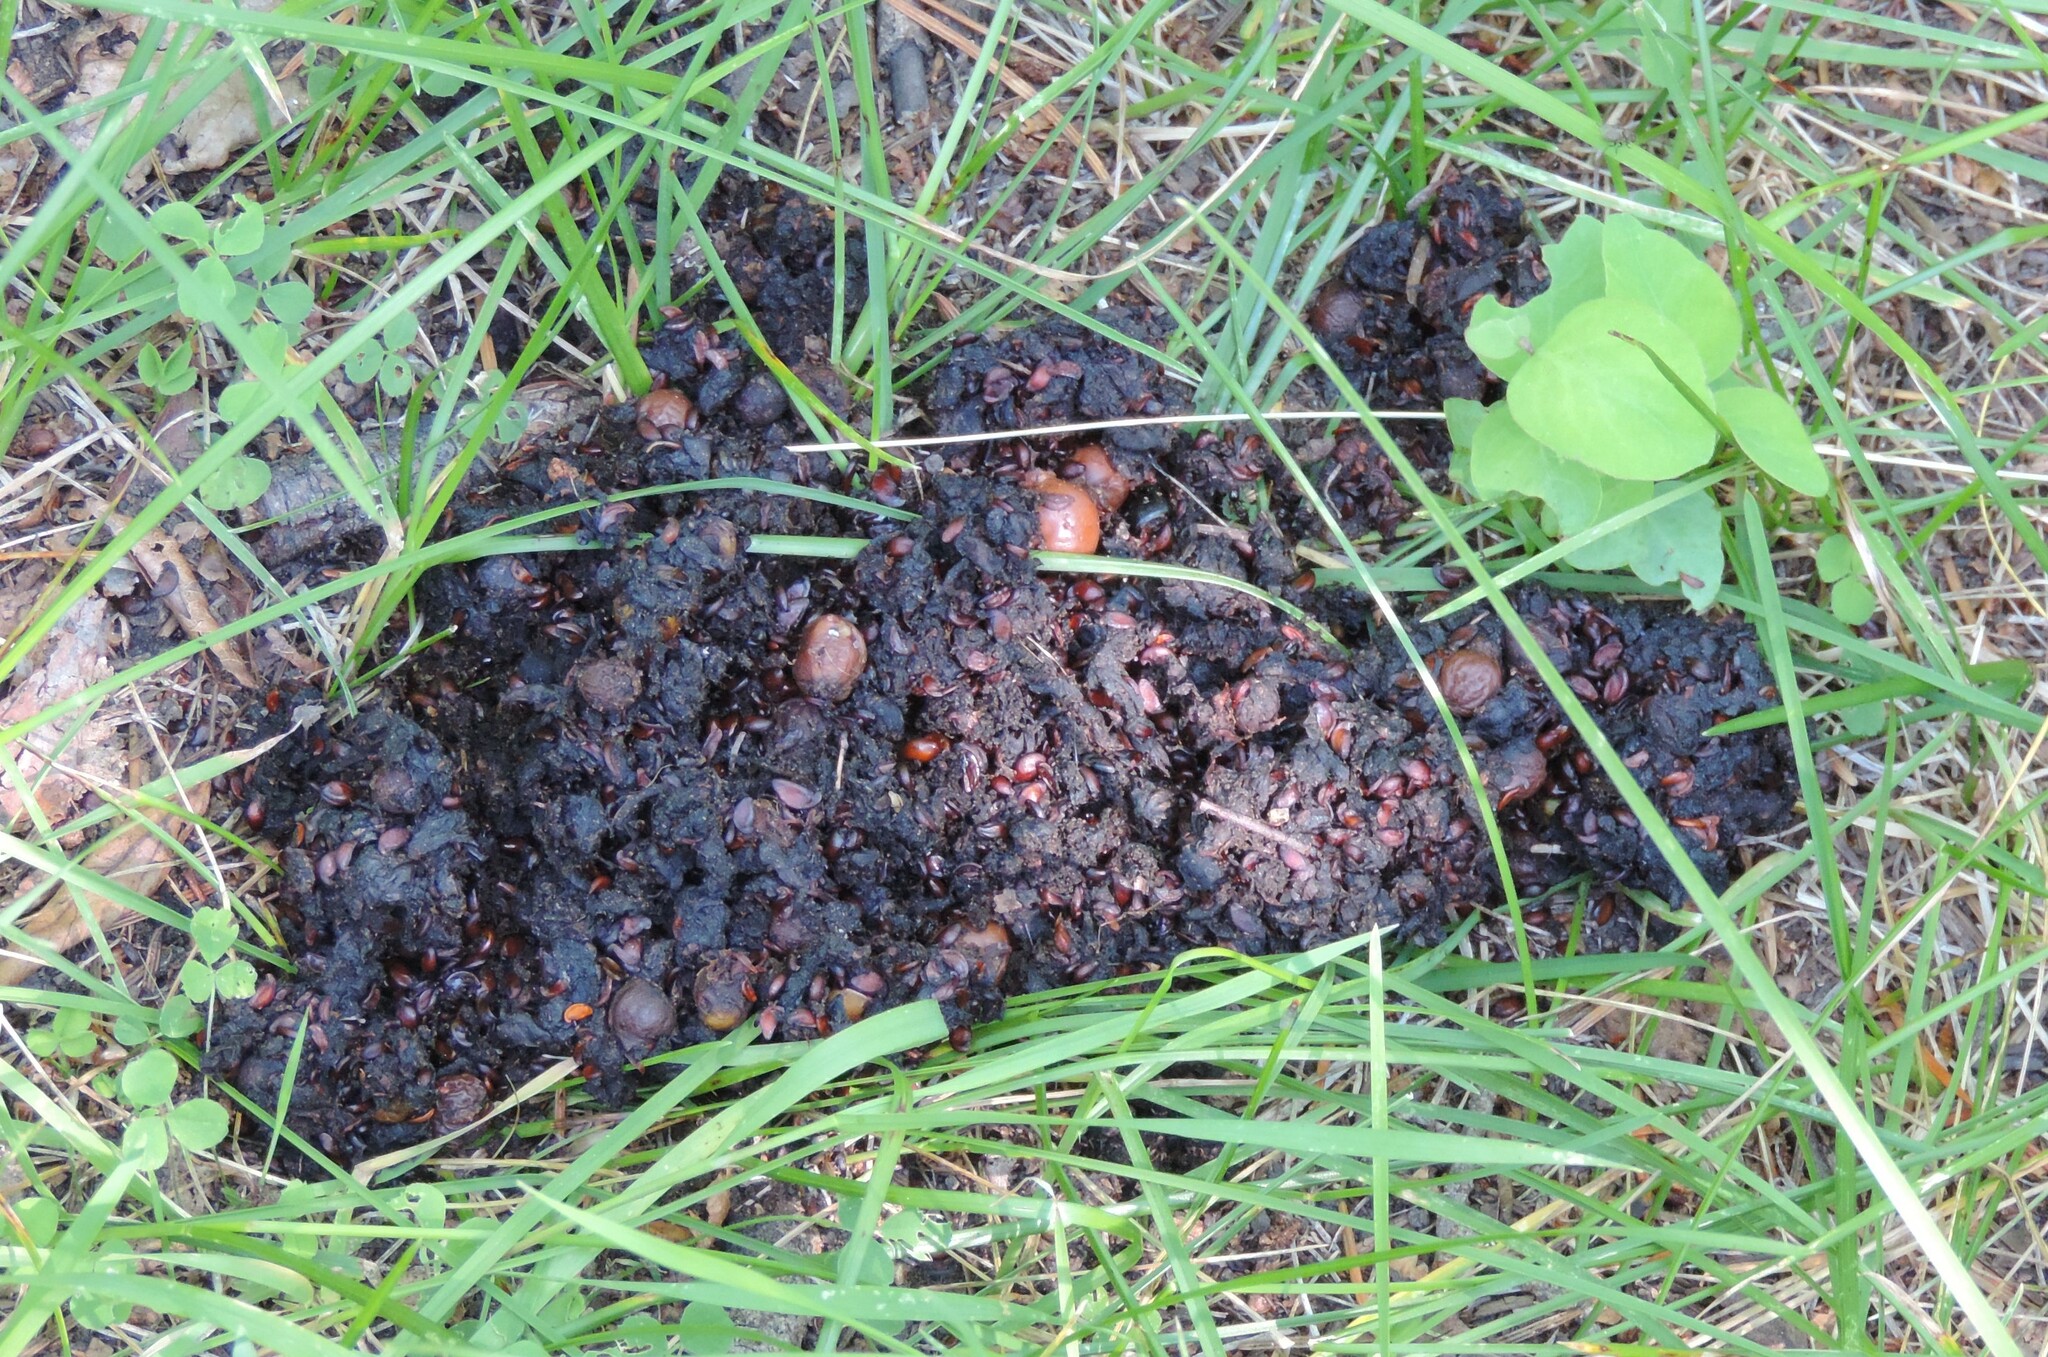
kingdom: Animalia
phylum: Chordata
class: Mammalia
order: Carnivora
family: Ursidae
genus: Ursus
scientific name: Ursus americanus
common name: American black bear
